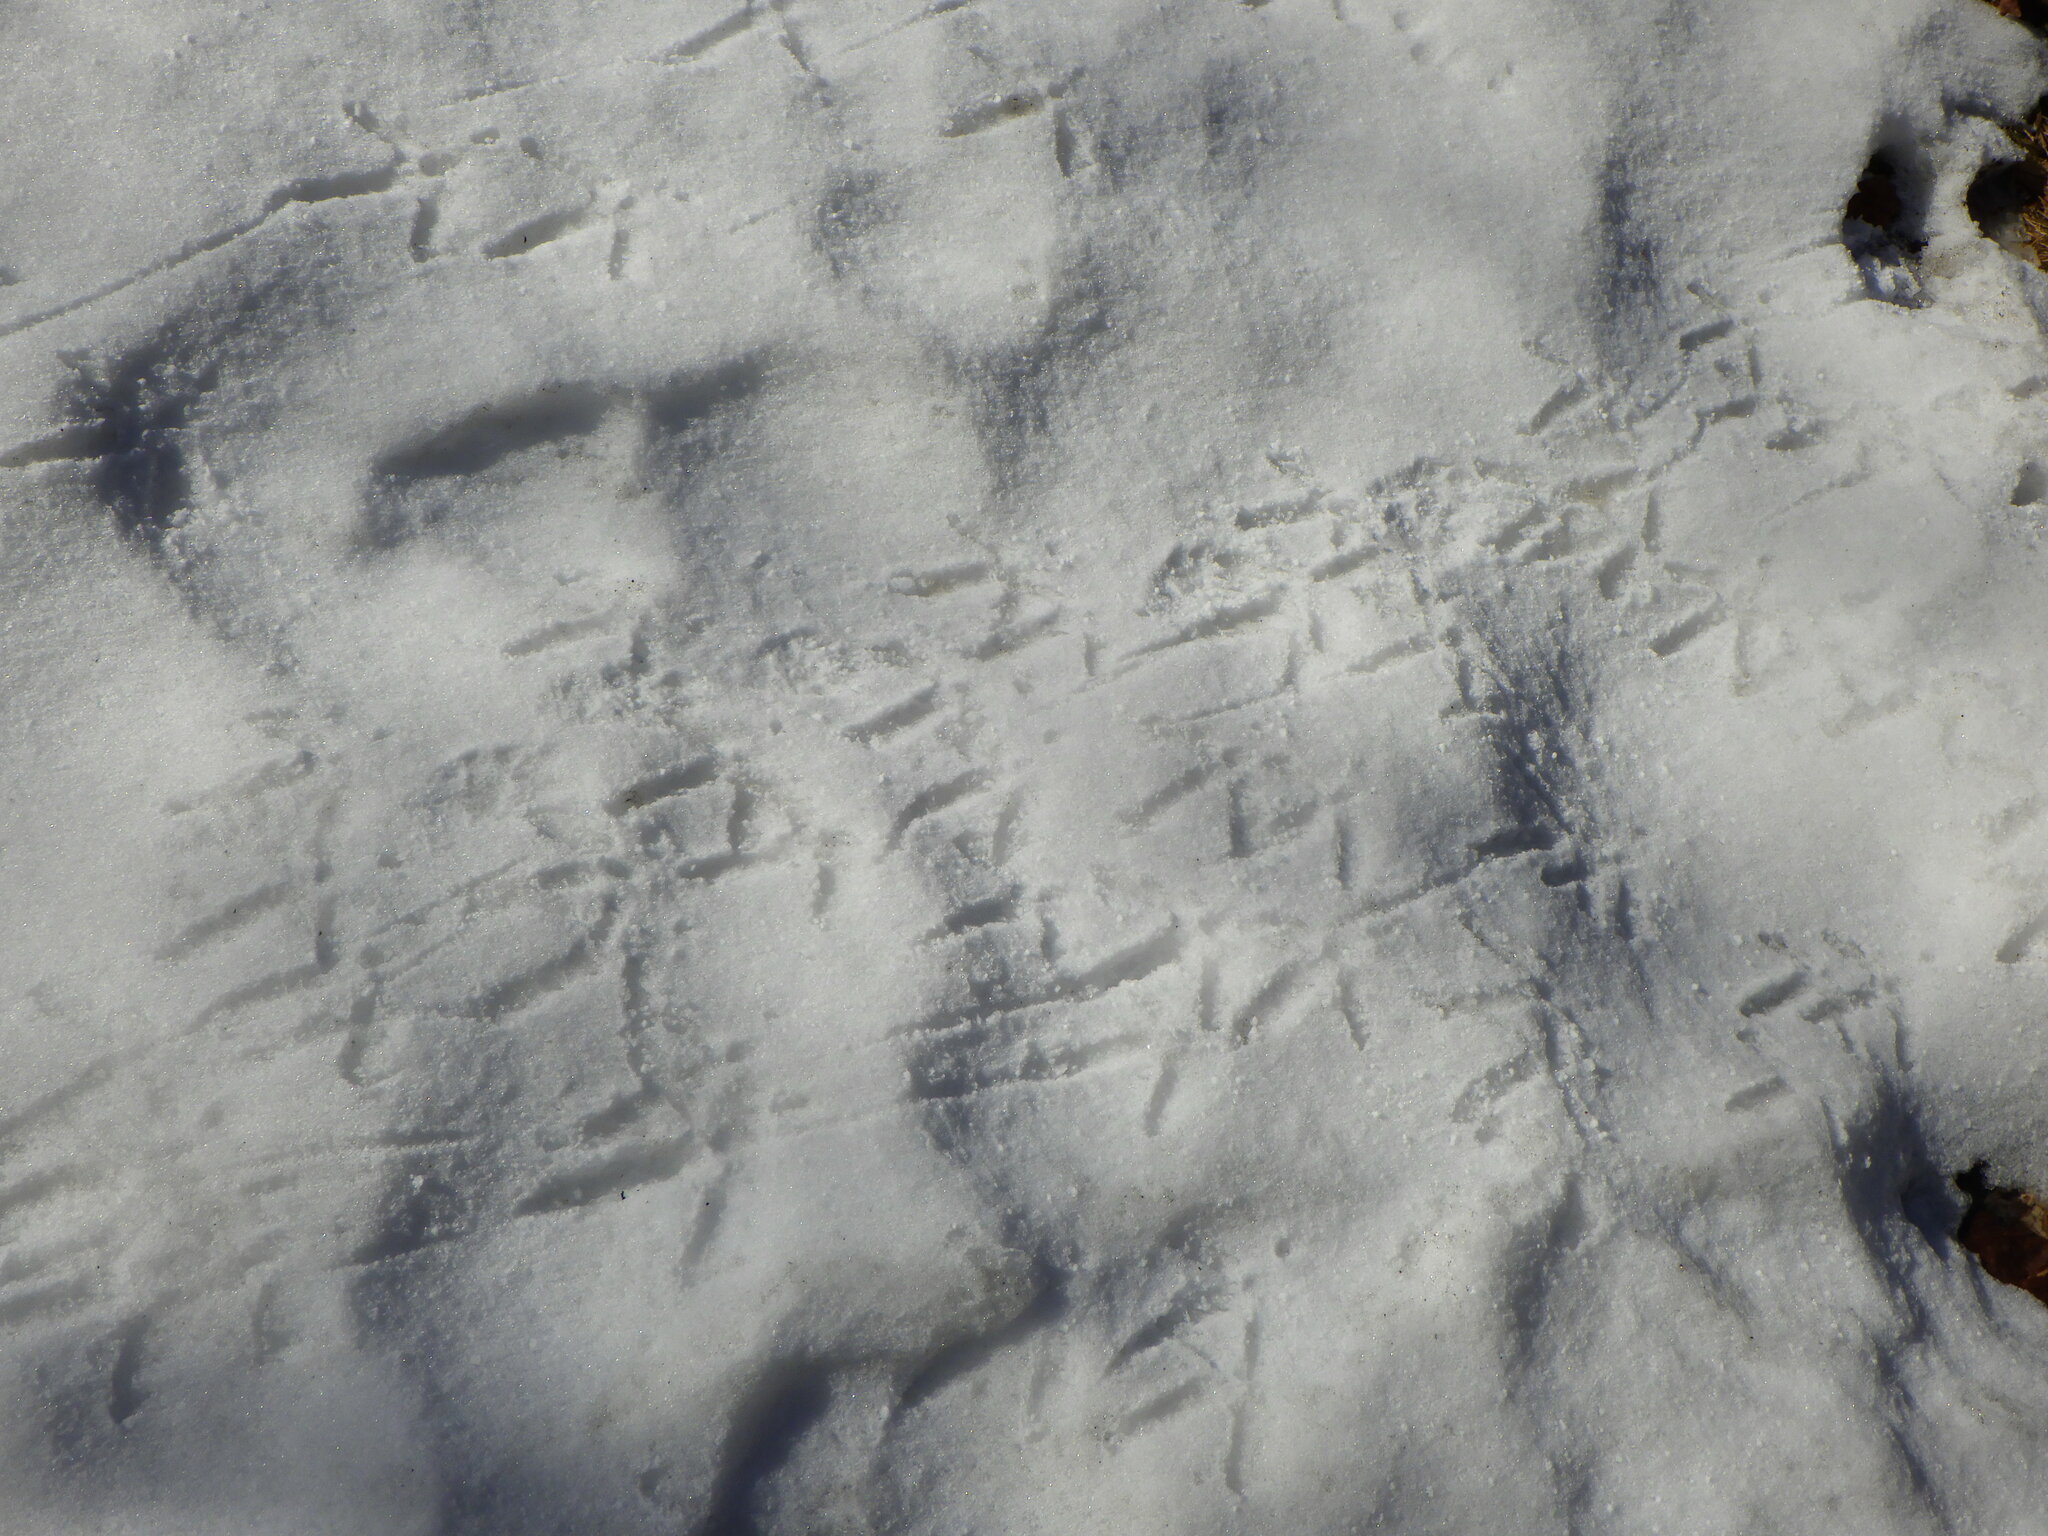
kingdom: Animalia
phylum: Chordata
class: Aves
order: Galliformes
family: Phasianidae
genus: Meleagris
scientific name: Meleagris gallopavo
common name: Wild turkey
